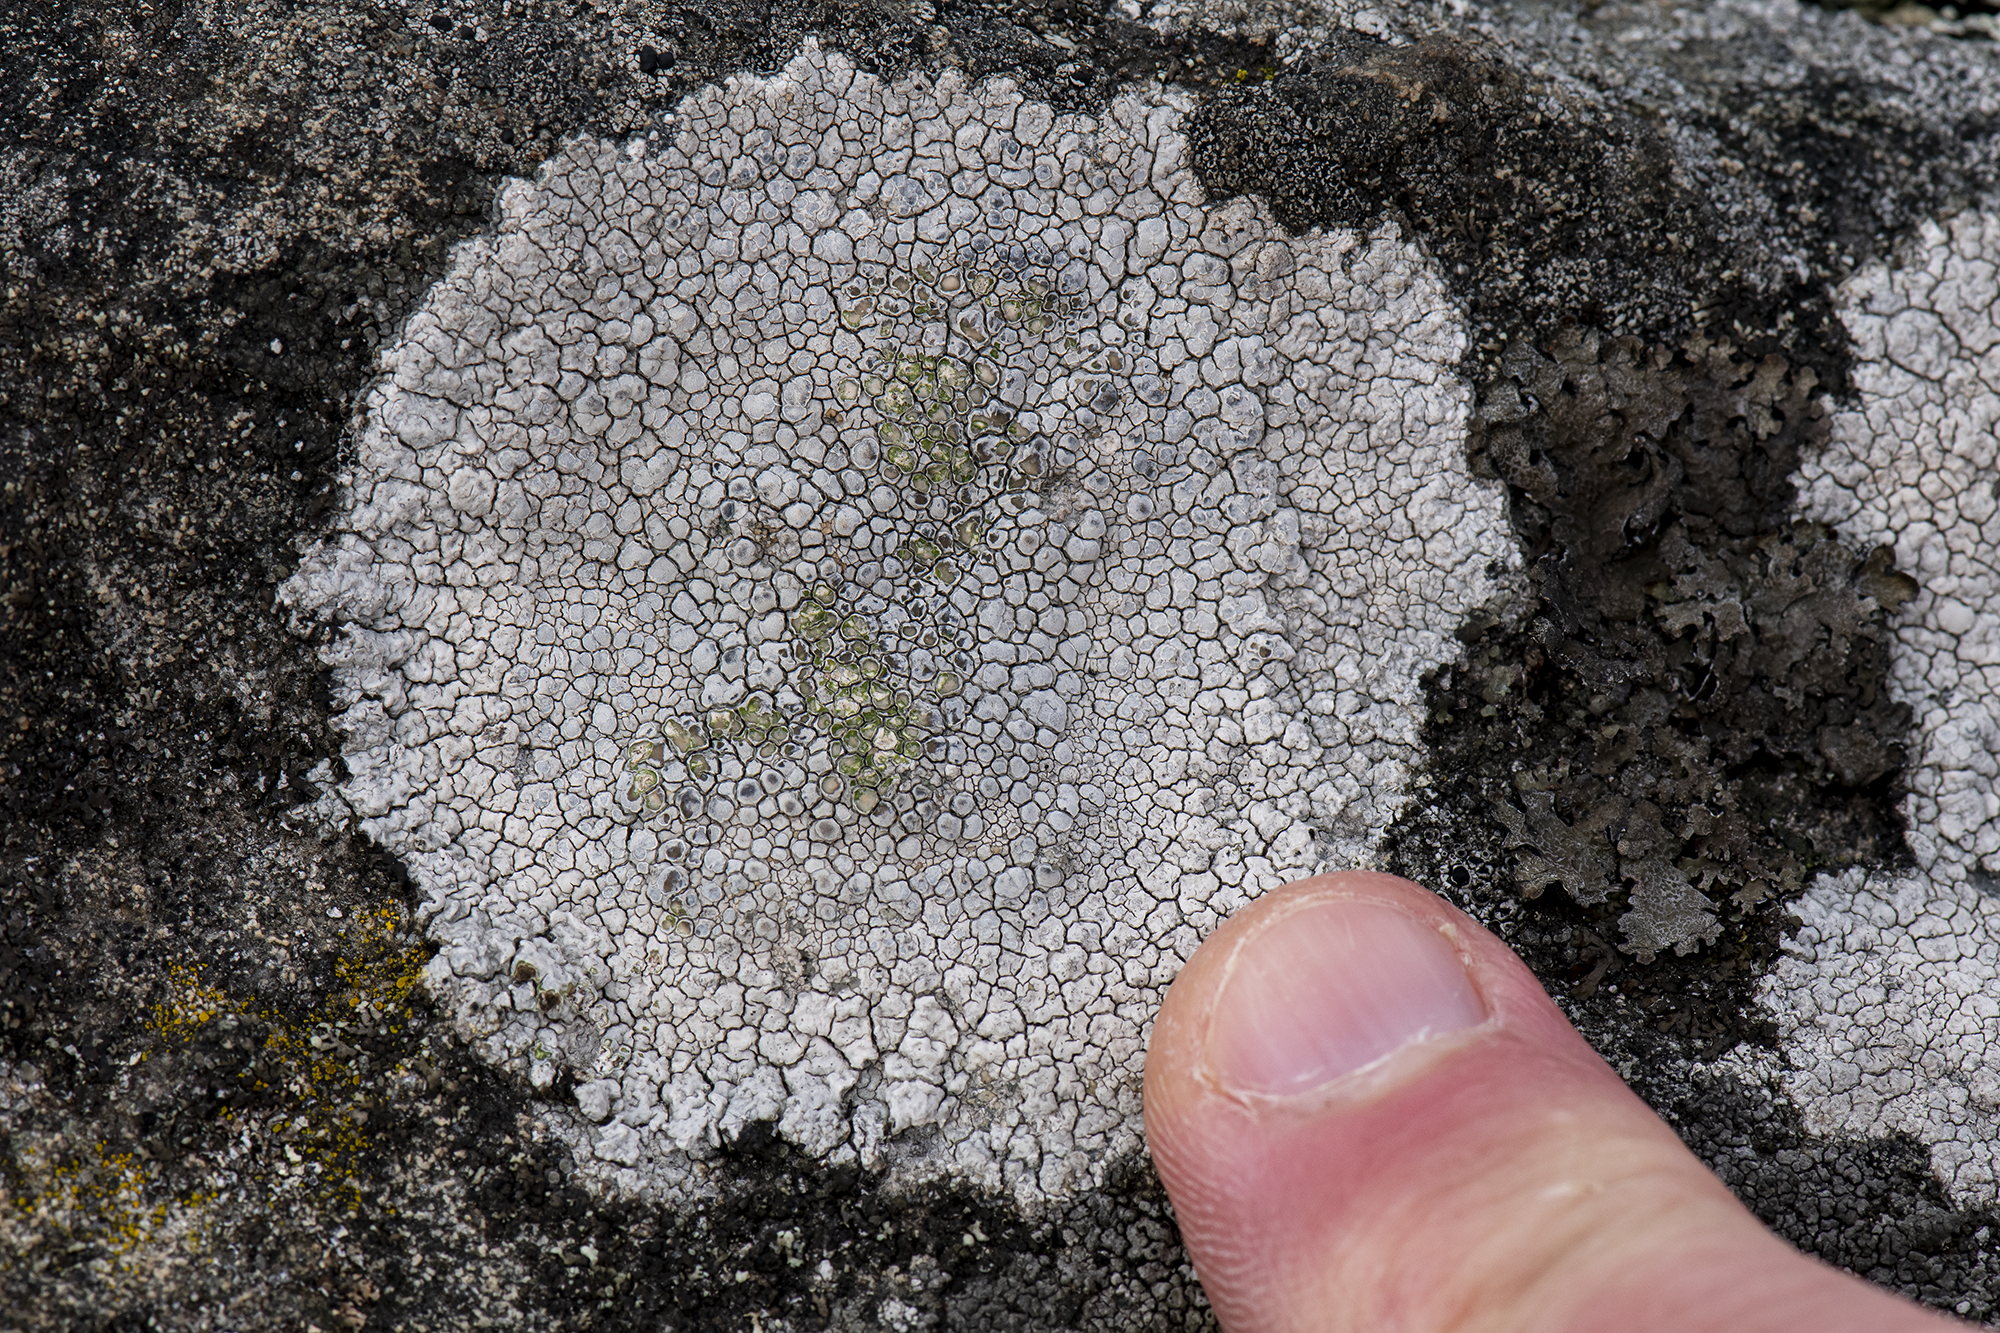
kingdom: Fungi
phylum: Ascomycota
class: Lecanoromycetes
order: Lecanorales
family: Lecanoraceae
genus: Glaucomaria
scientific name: Glaucomaria rupicola
